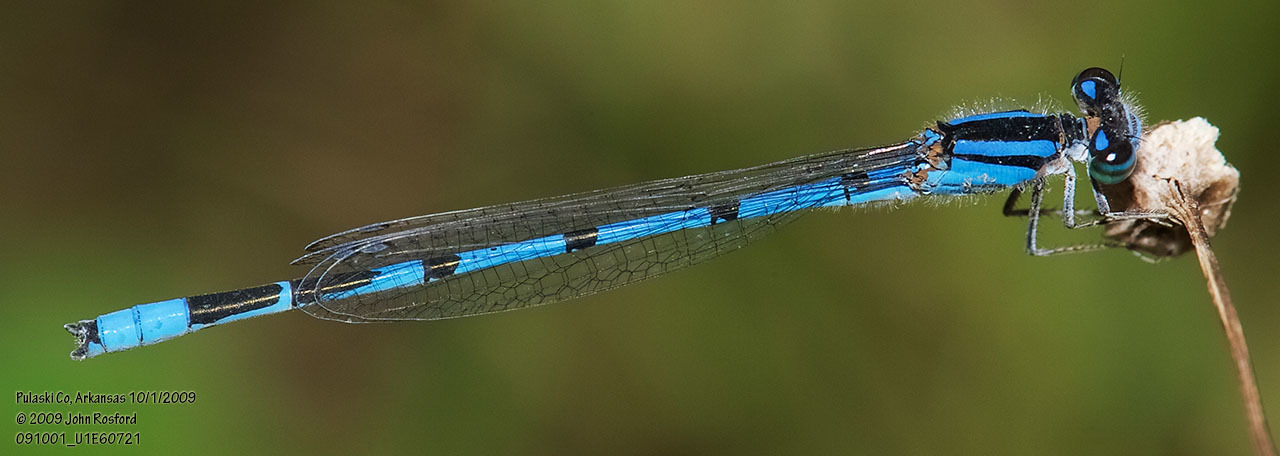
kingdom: Animalia
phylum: Arthropoda
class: Insecta
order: Odonata
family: Coenagrionidae
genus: Enallagma
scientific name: Enallagma civile
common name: Damselfly
